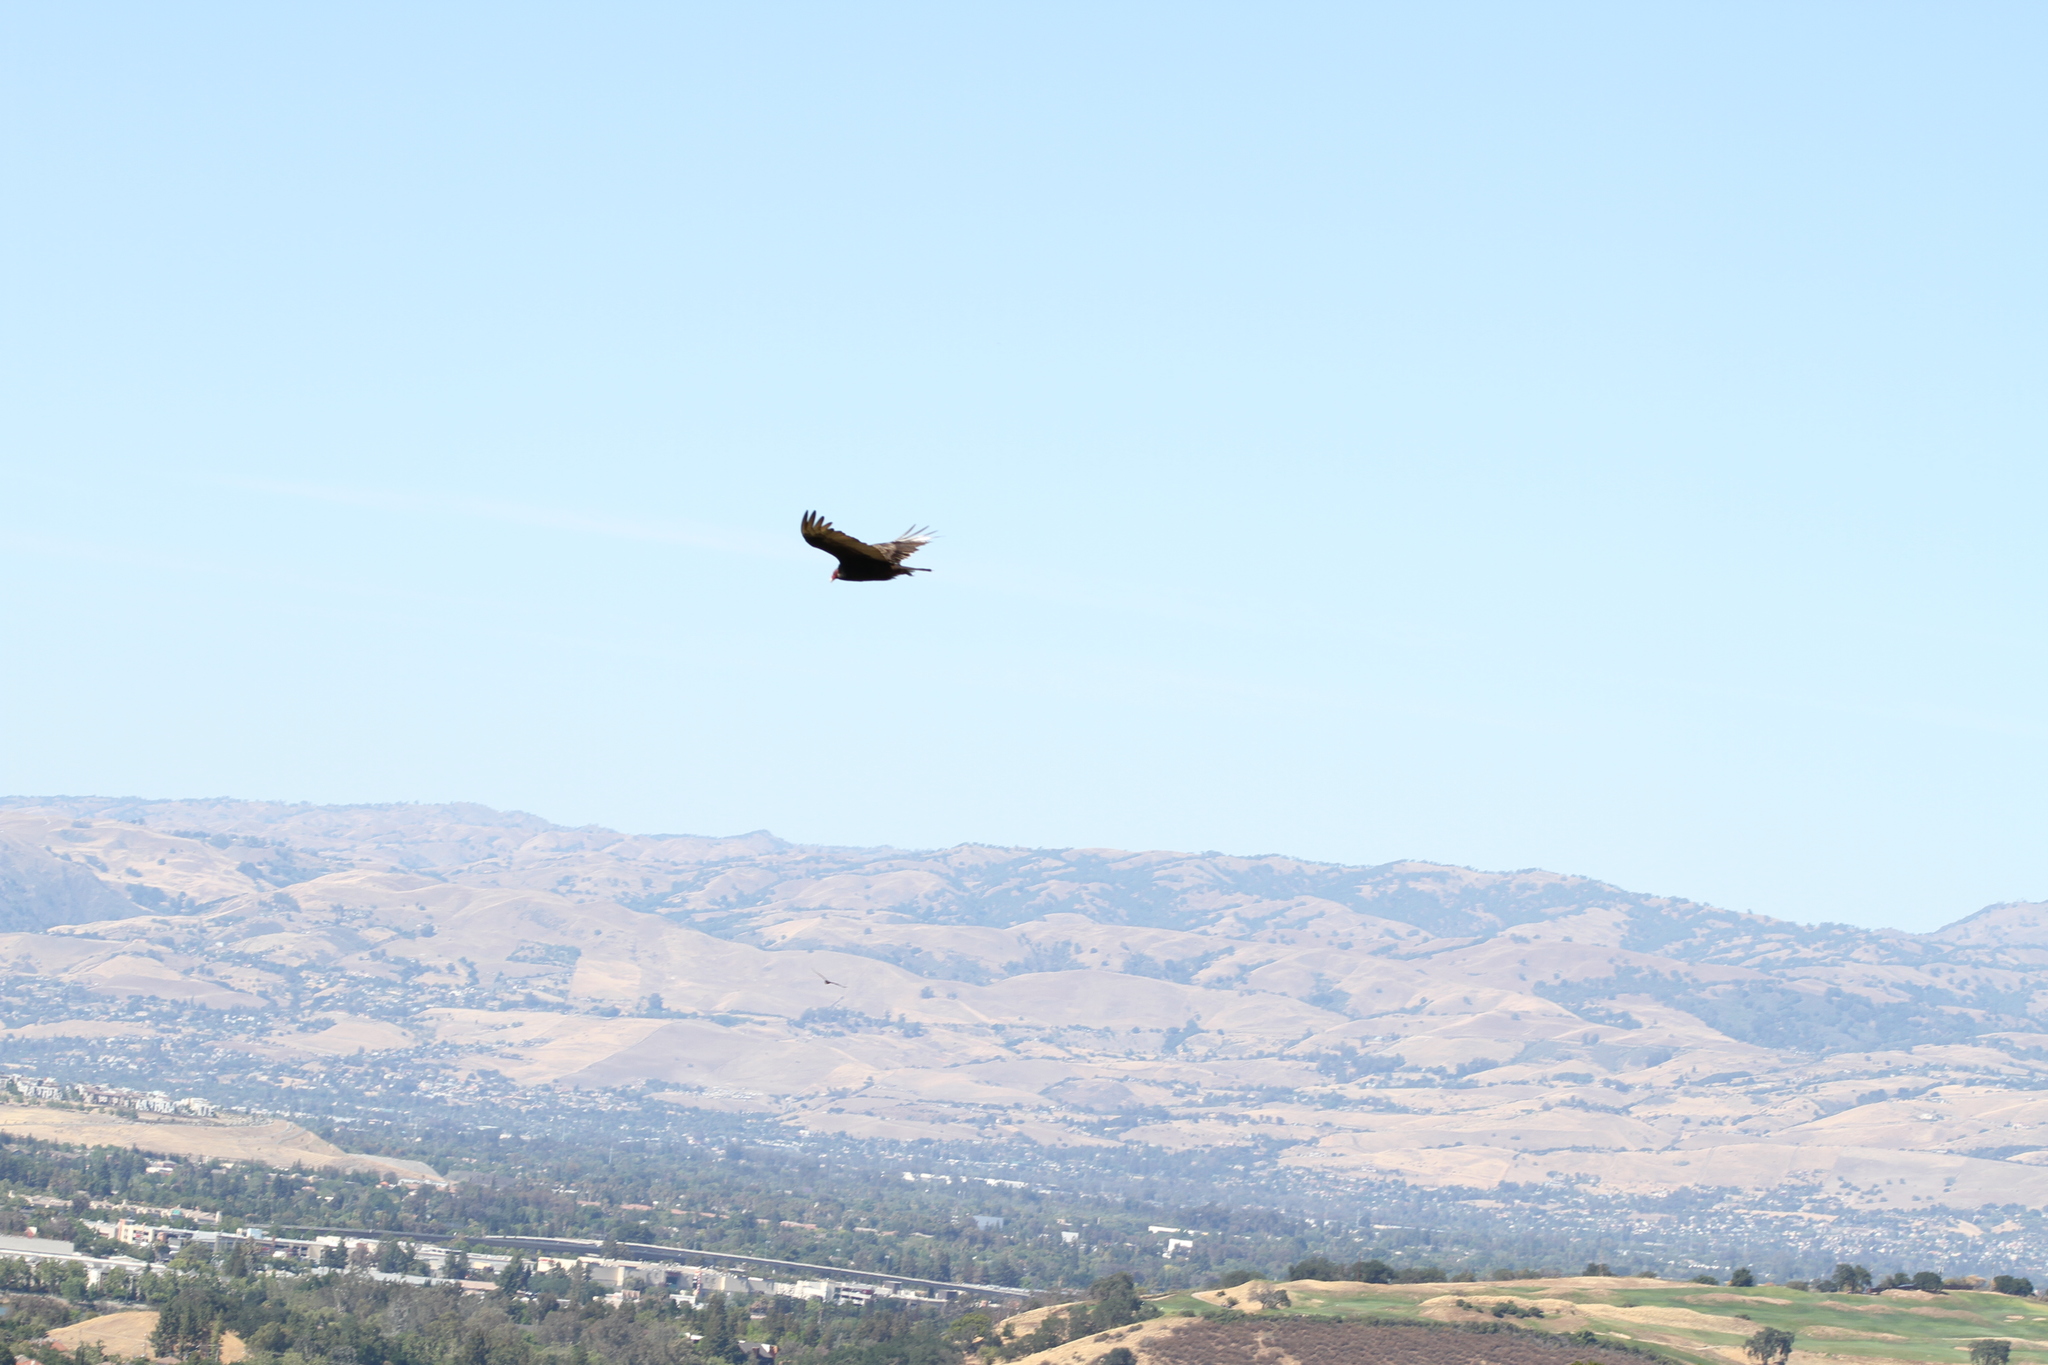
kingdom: Animalia
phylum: Chordata
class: Aves
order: Accipitriformes
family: Cathartidae
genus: Cathartes
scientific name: Cathartes aura
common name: Turkey vulture
